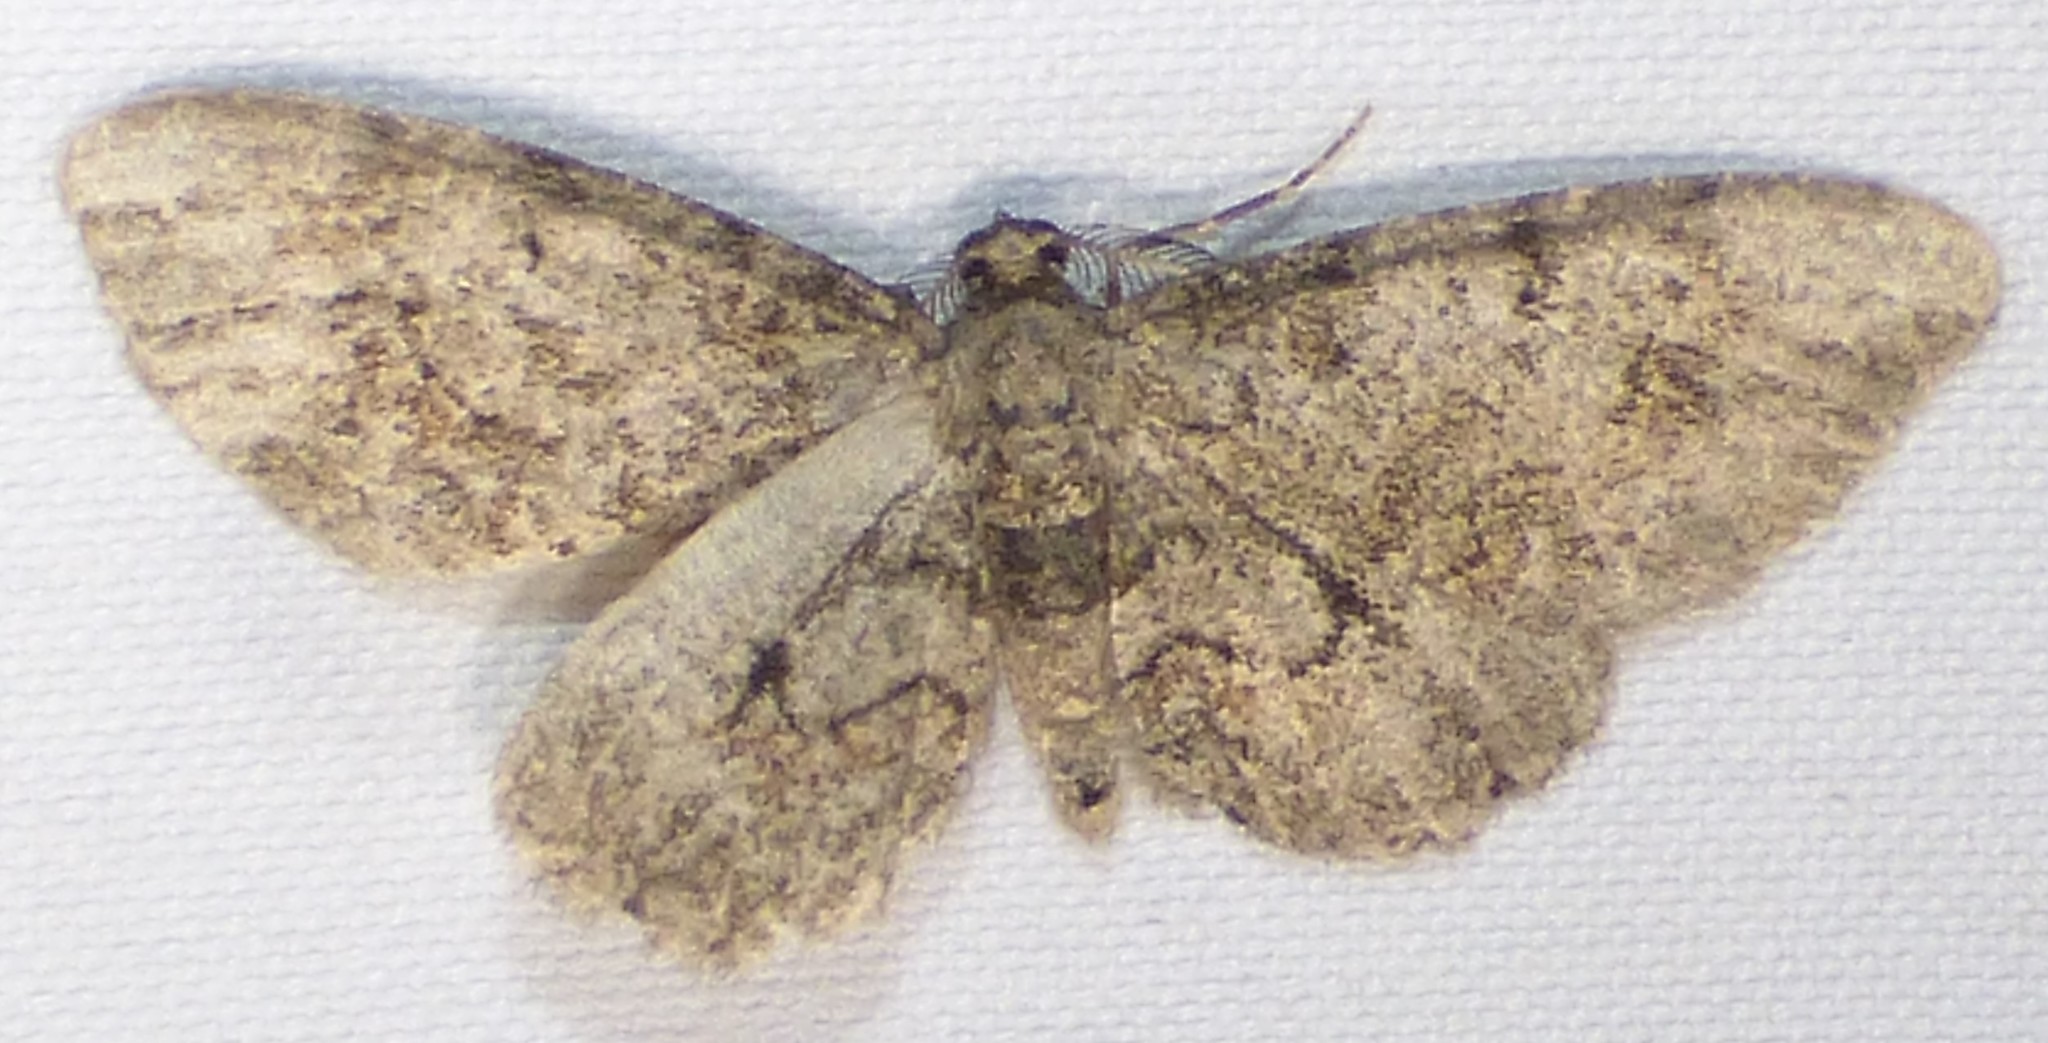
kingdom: Animalia
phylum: Arthropoda
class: Insecta
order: Lepidoptera
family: Geometridae
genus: Glenoides
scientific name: Glenoides texanaria
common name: Texas gray
